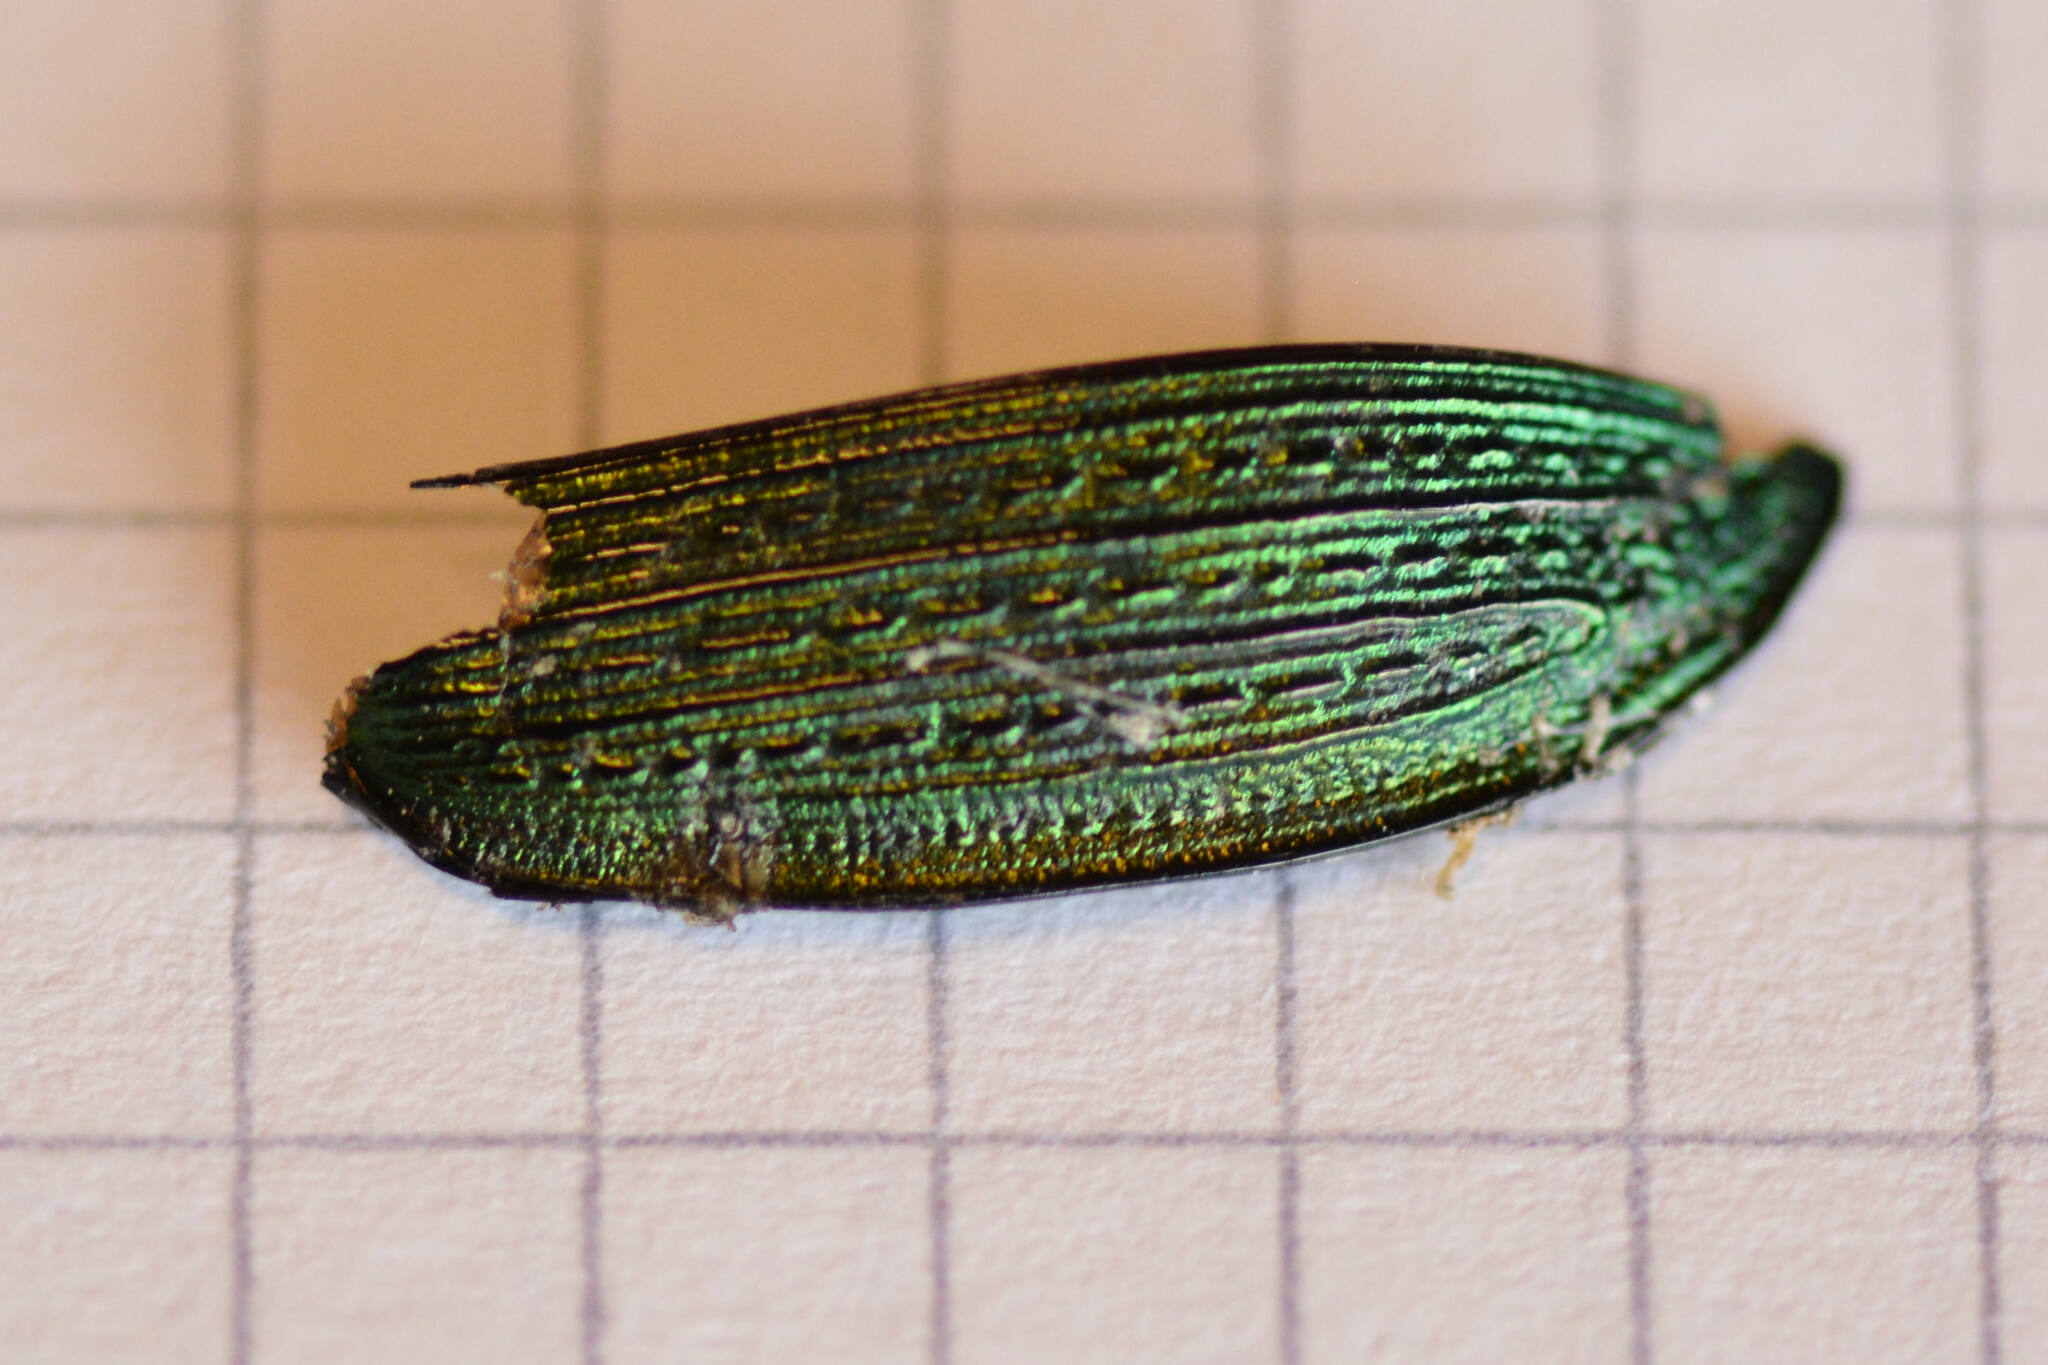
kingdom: Animalia
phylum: Arthropoda
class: Insecta
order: Coleoptera
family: Carabidae
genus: Carabus
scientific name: Carabus monilis
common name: Necklace ground beetle
